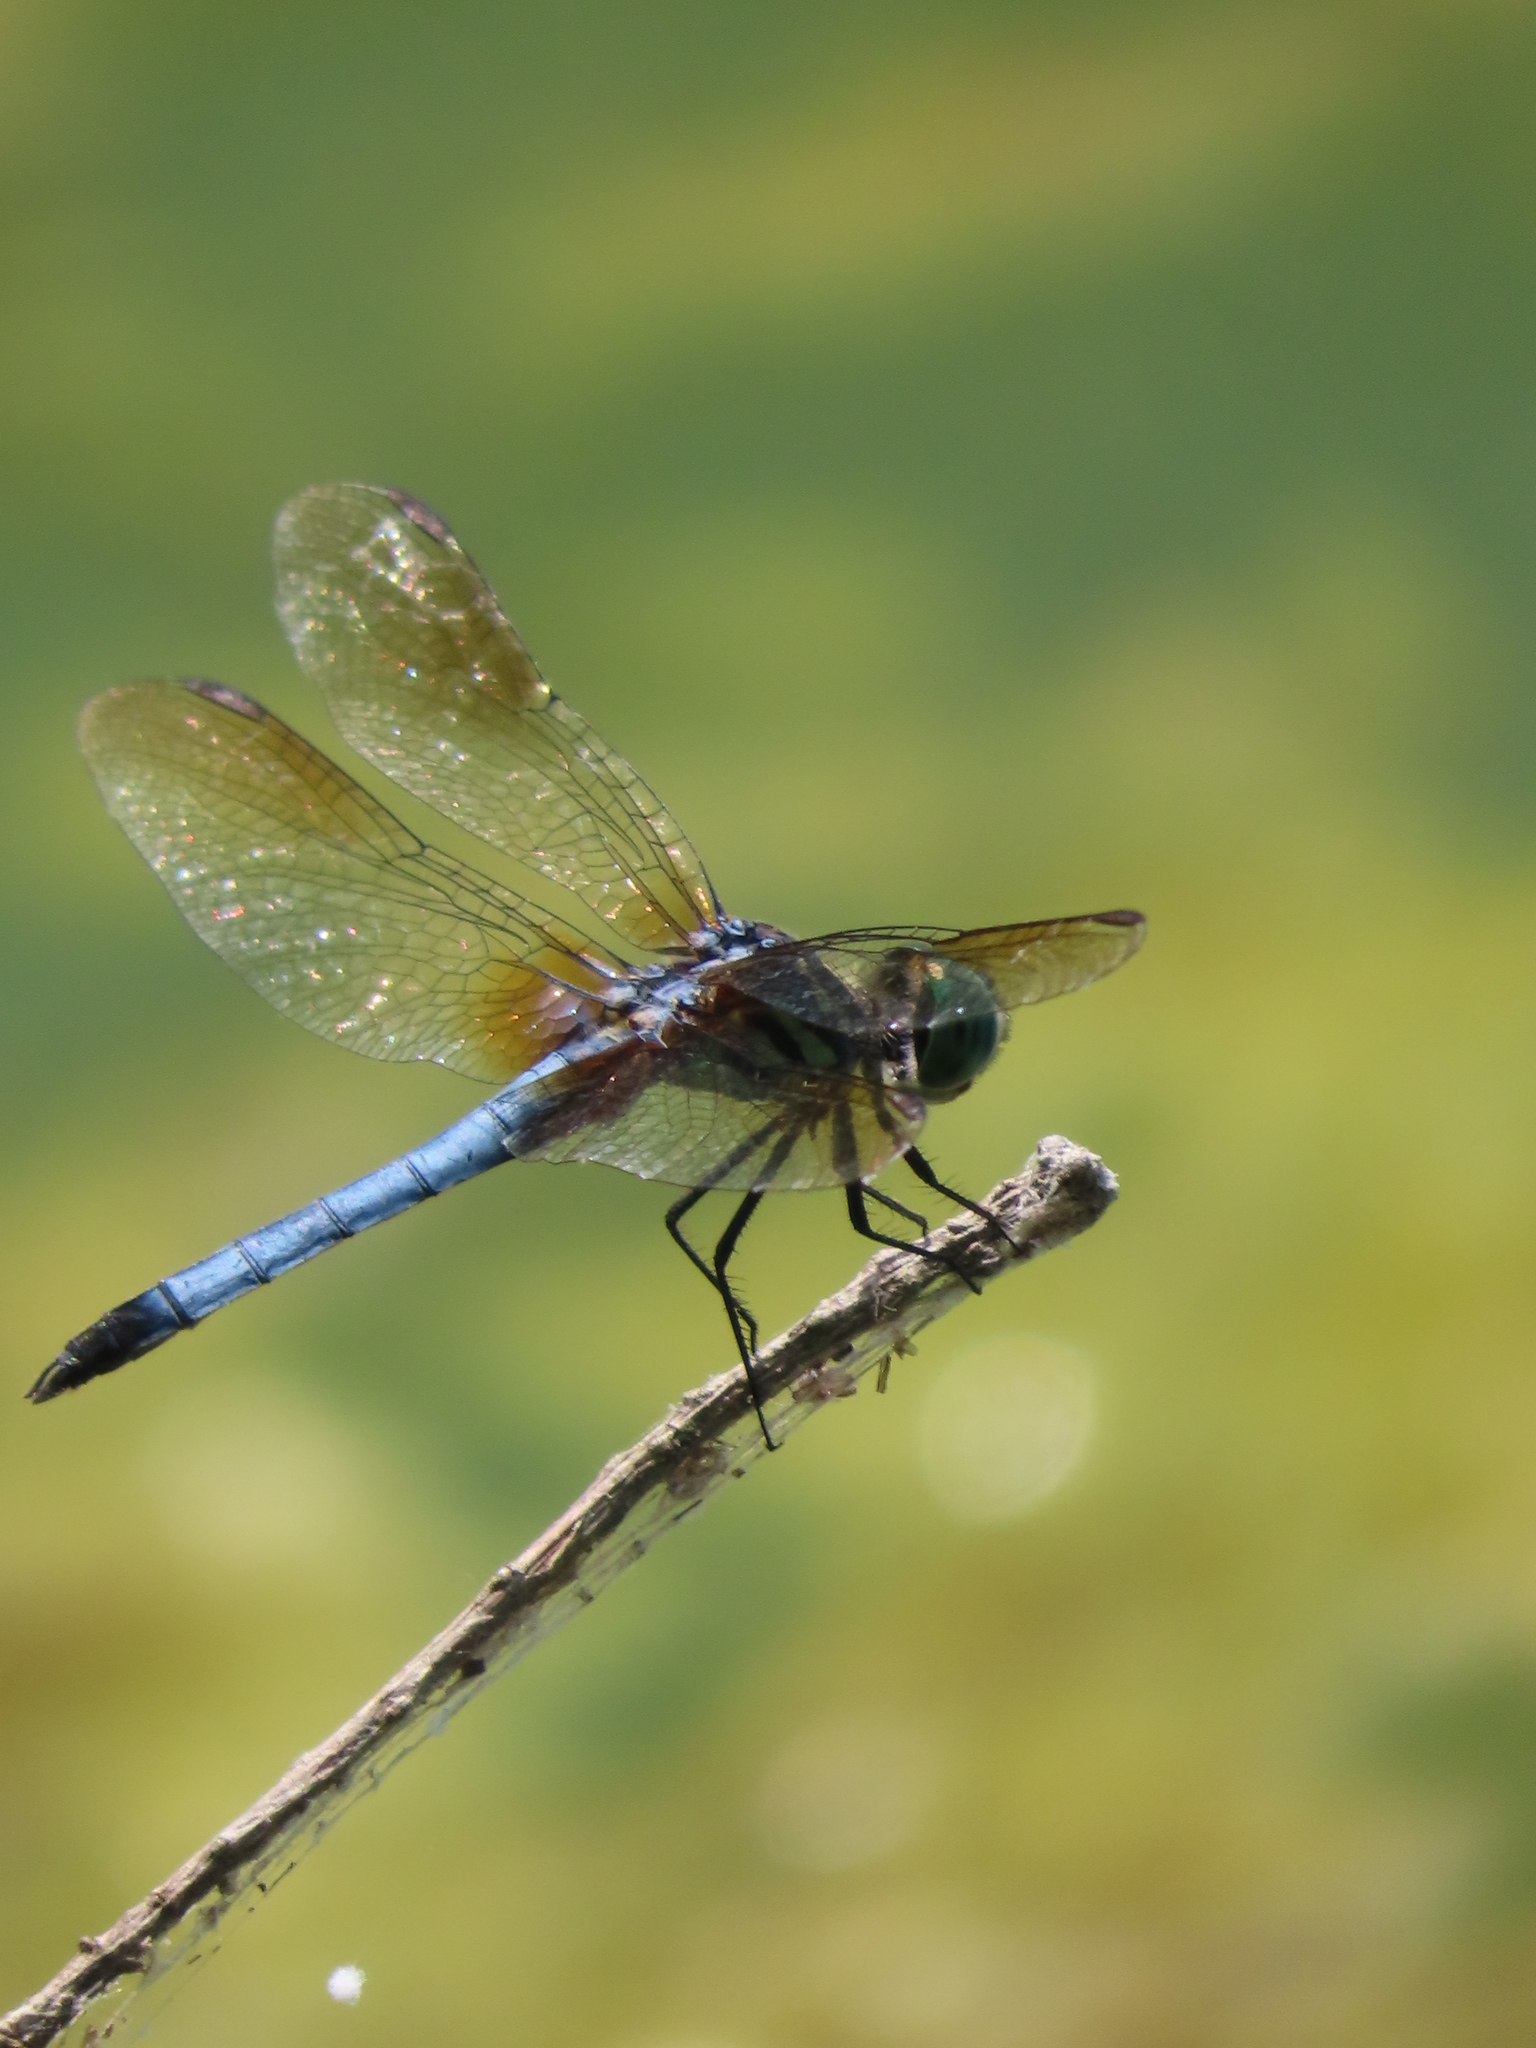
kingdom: Animalia
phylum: Arthropoda
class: Insecta
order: Odonata
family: Libellulidae
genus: Pachydiplax
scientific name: Pachydiplax longipennis
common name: Blue dasher
